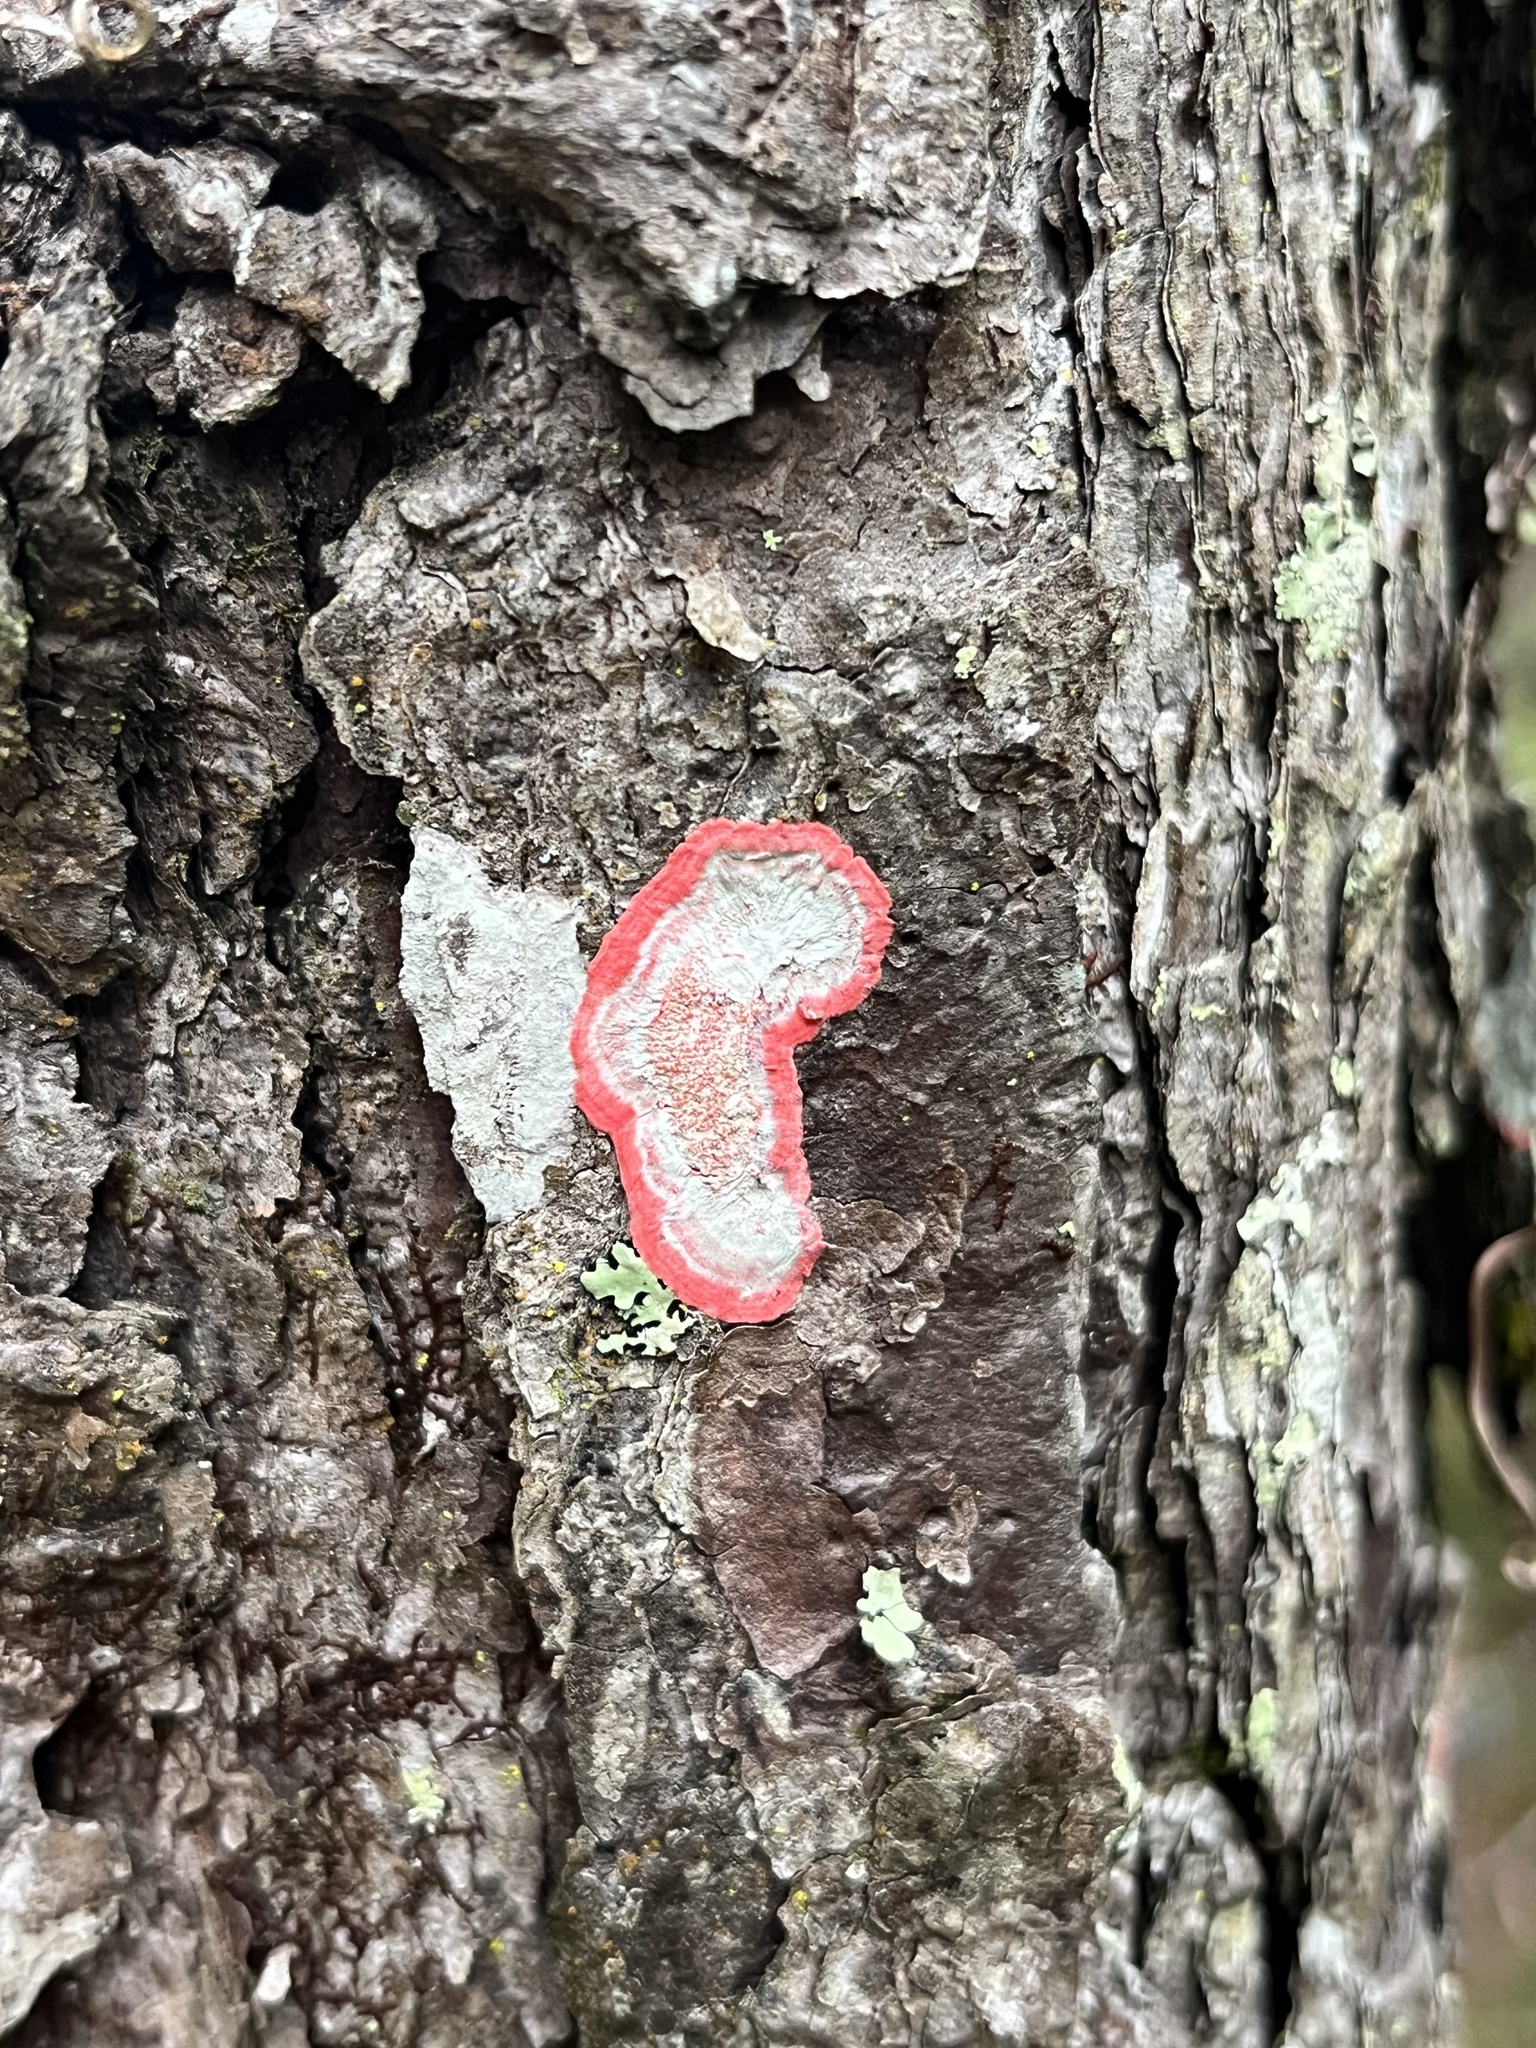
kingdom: Fungi
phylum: Ascomycota
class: Arthoniomycetes
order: Arthoniales
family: Arthoniaceae
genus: Herpothallon
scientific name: Herpothallon rubrocinctum
